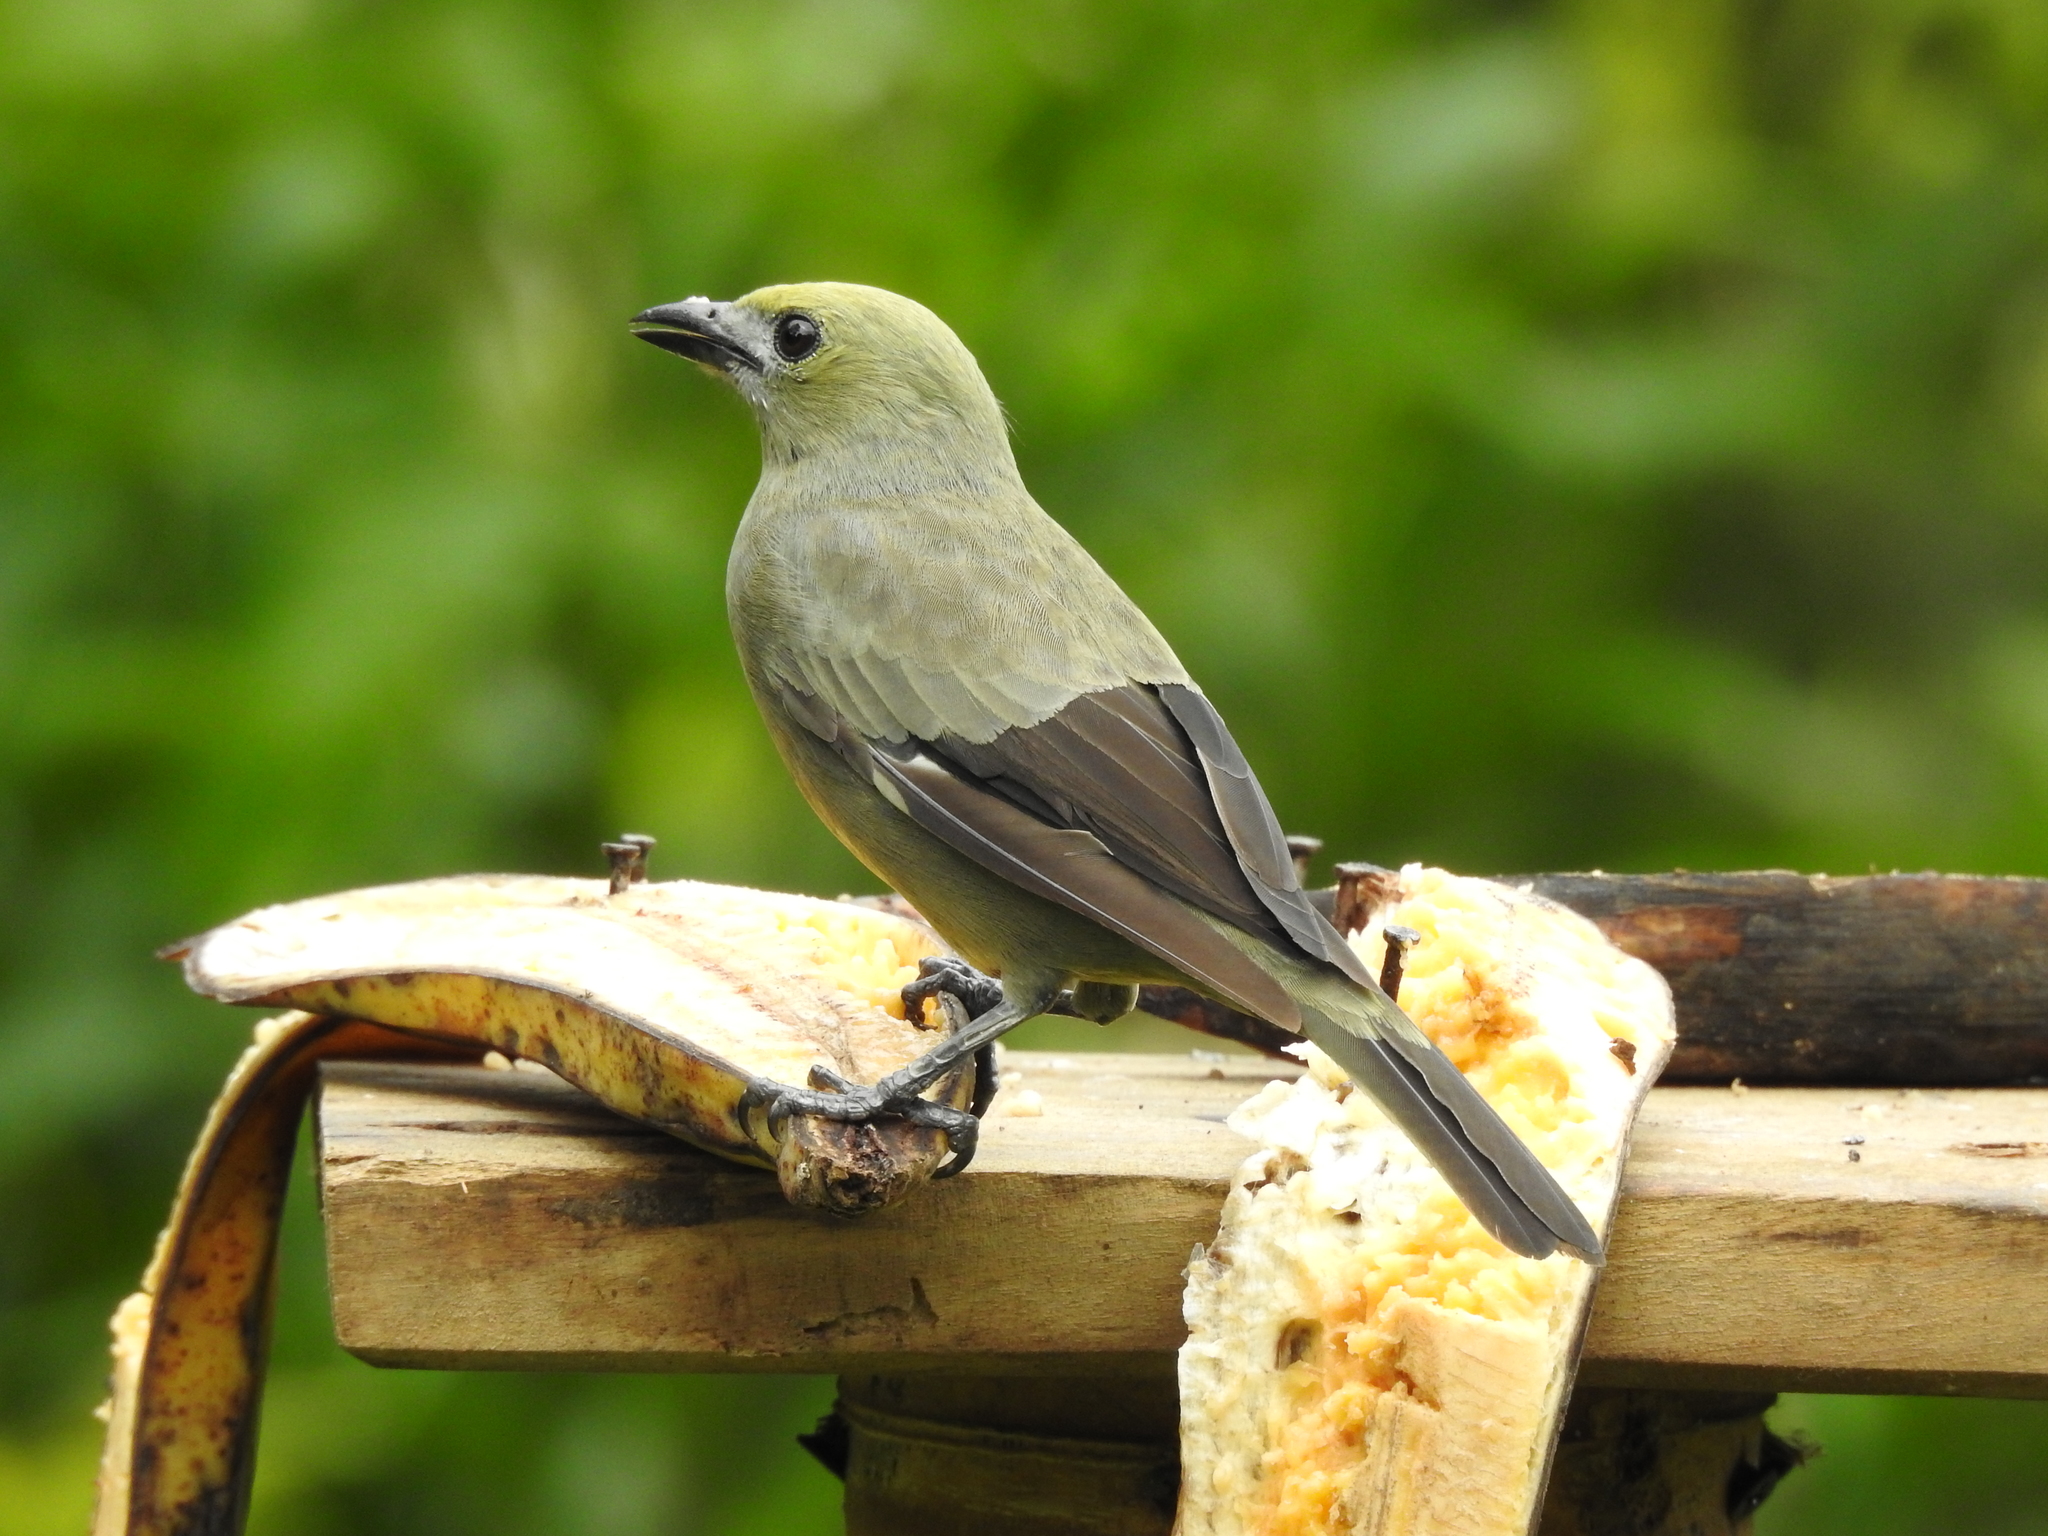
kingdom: Animalia
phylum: Chordata
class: Aves
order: Passeriformes
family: Thraupidae
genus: Thraupis
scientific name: Thraupis palmarum
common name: Palm tanager
